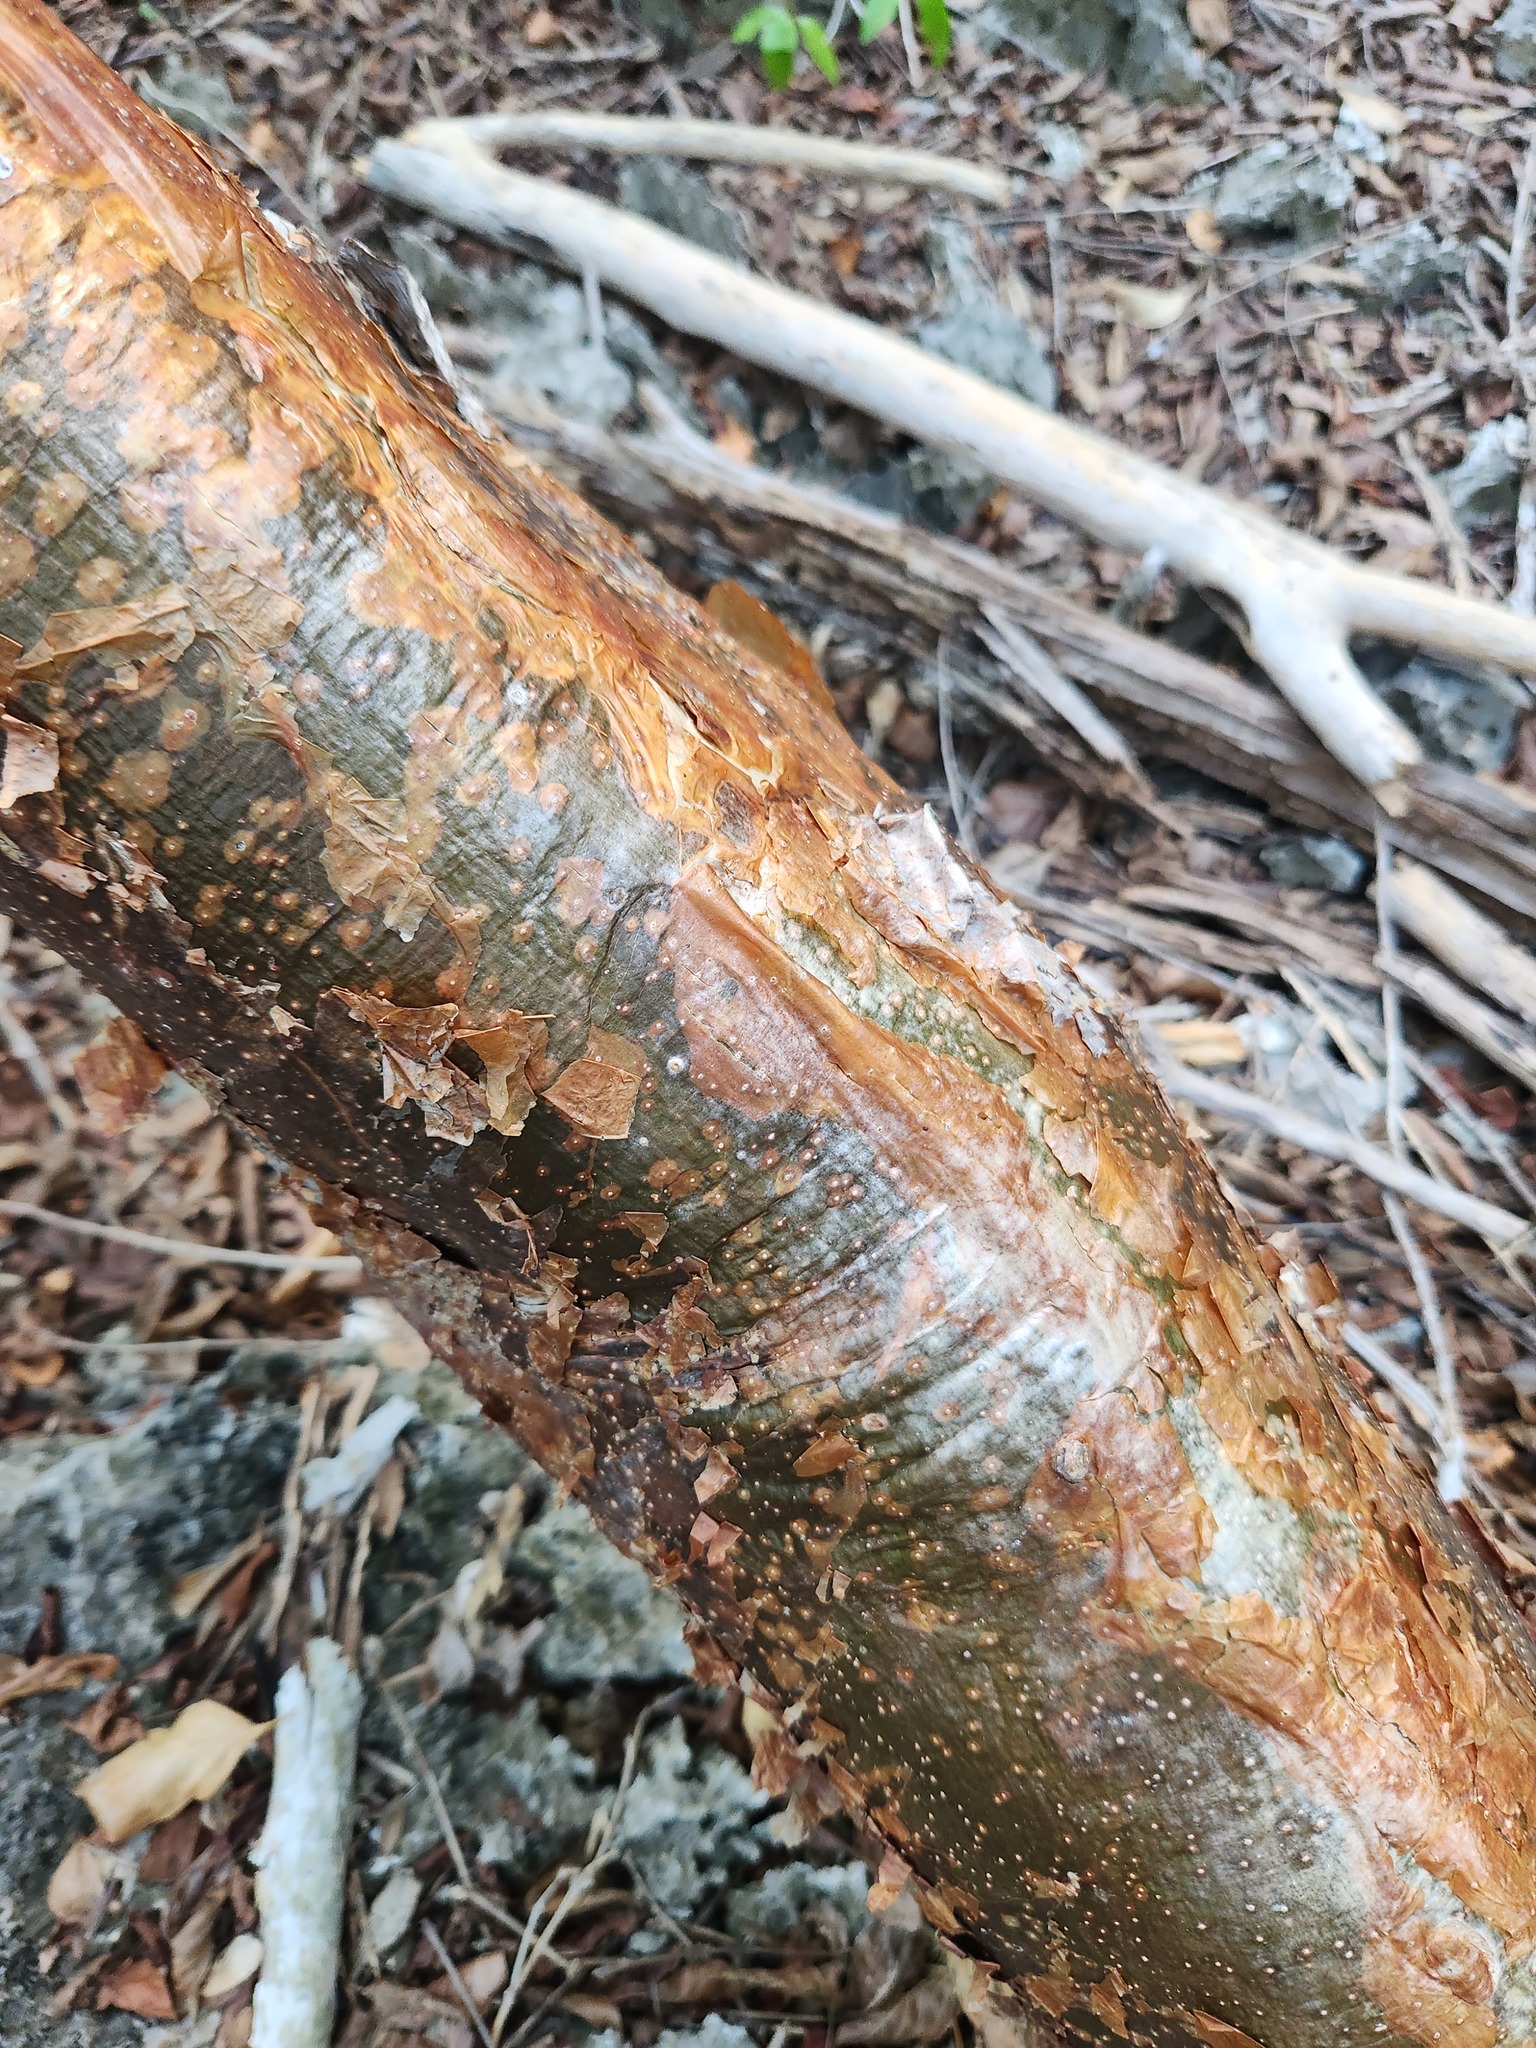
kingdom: Plantae
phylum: Tracheophyta
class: Magnoliopsida
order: Sapindales
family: Burseraceae
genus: Bursera
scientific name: Bursera simaruba
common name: Turpentine tree
